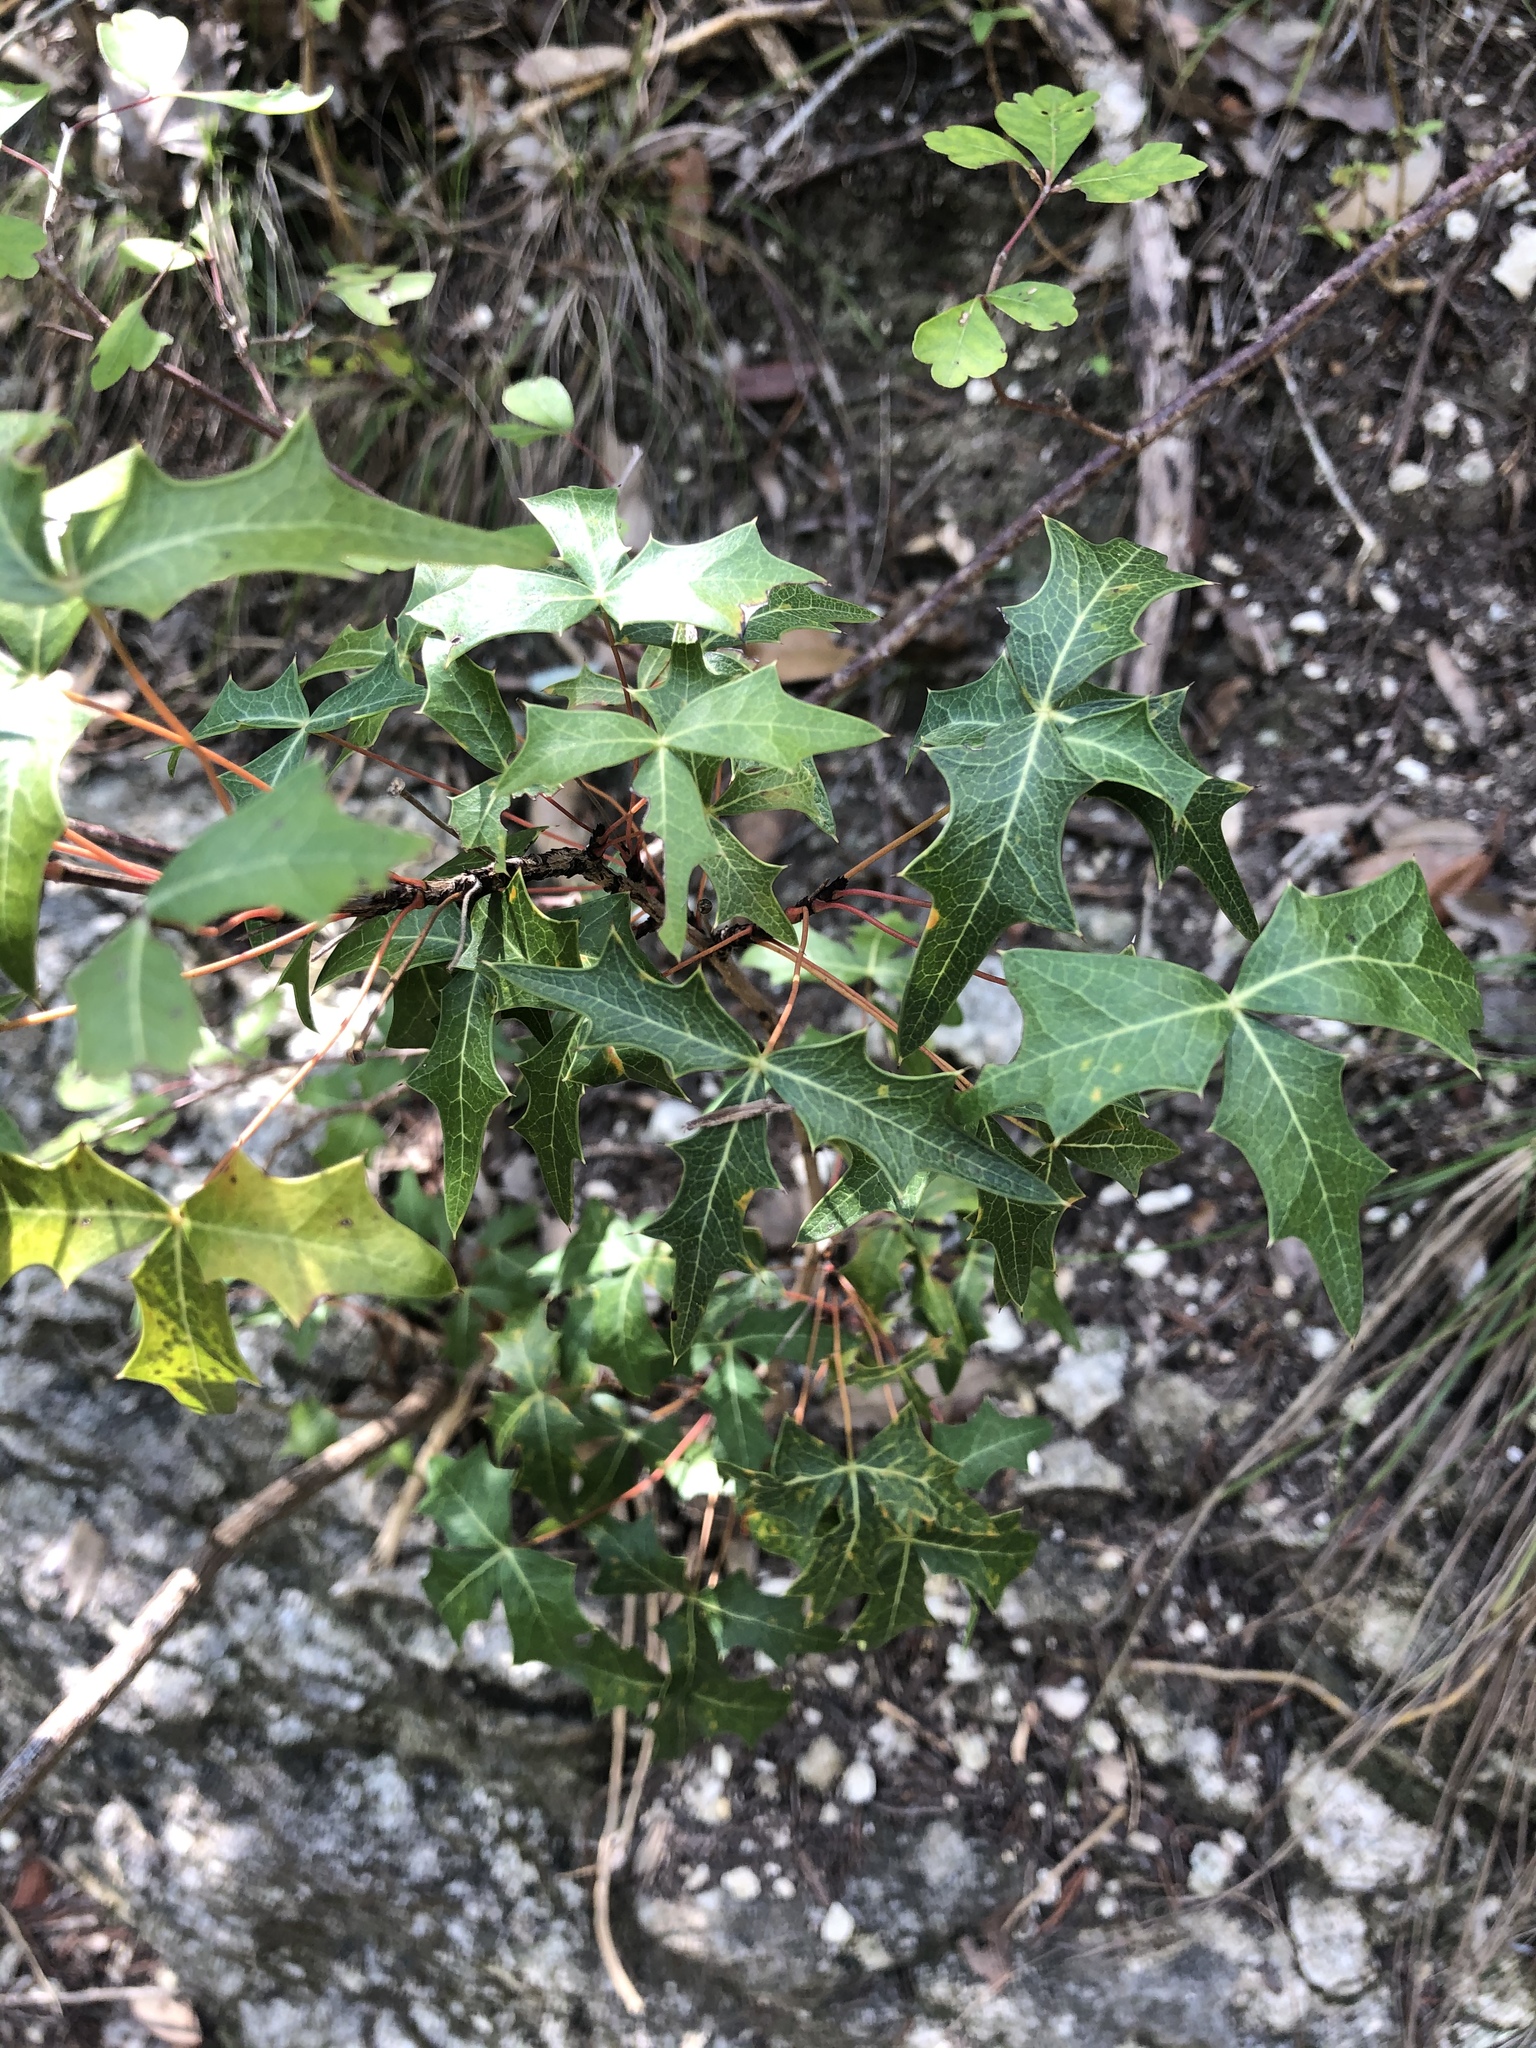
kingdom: Plantae
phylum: Tracheophyta
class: Magnoliopsida
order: Ranunculales
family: Berberidaceae
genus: Alloberberis
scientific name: Alloberberis trifoliolata
